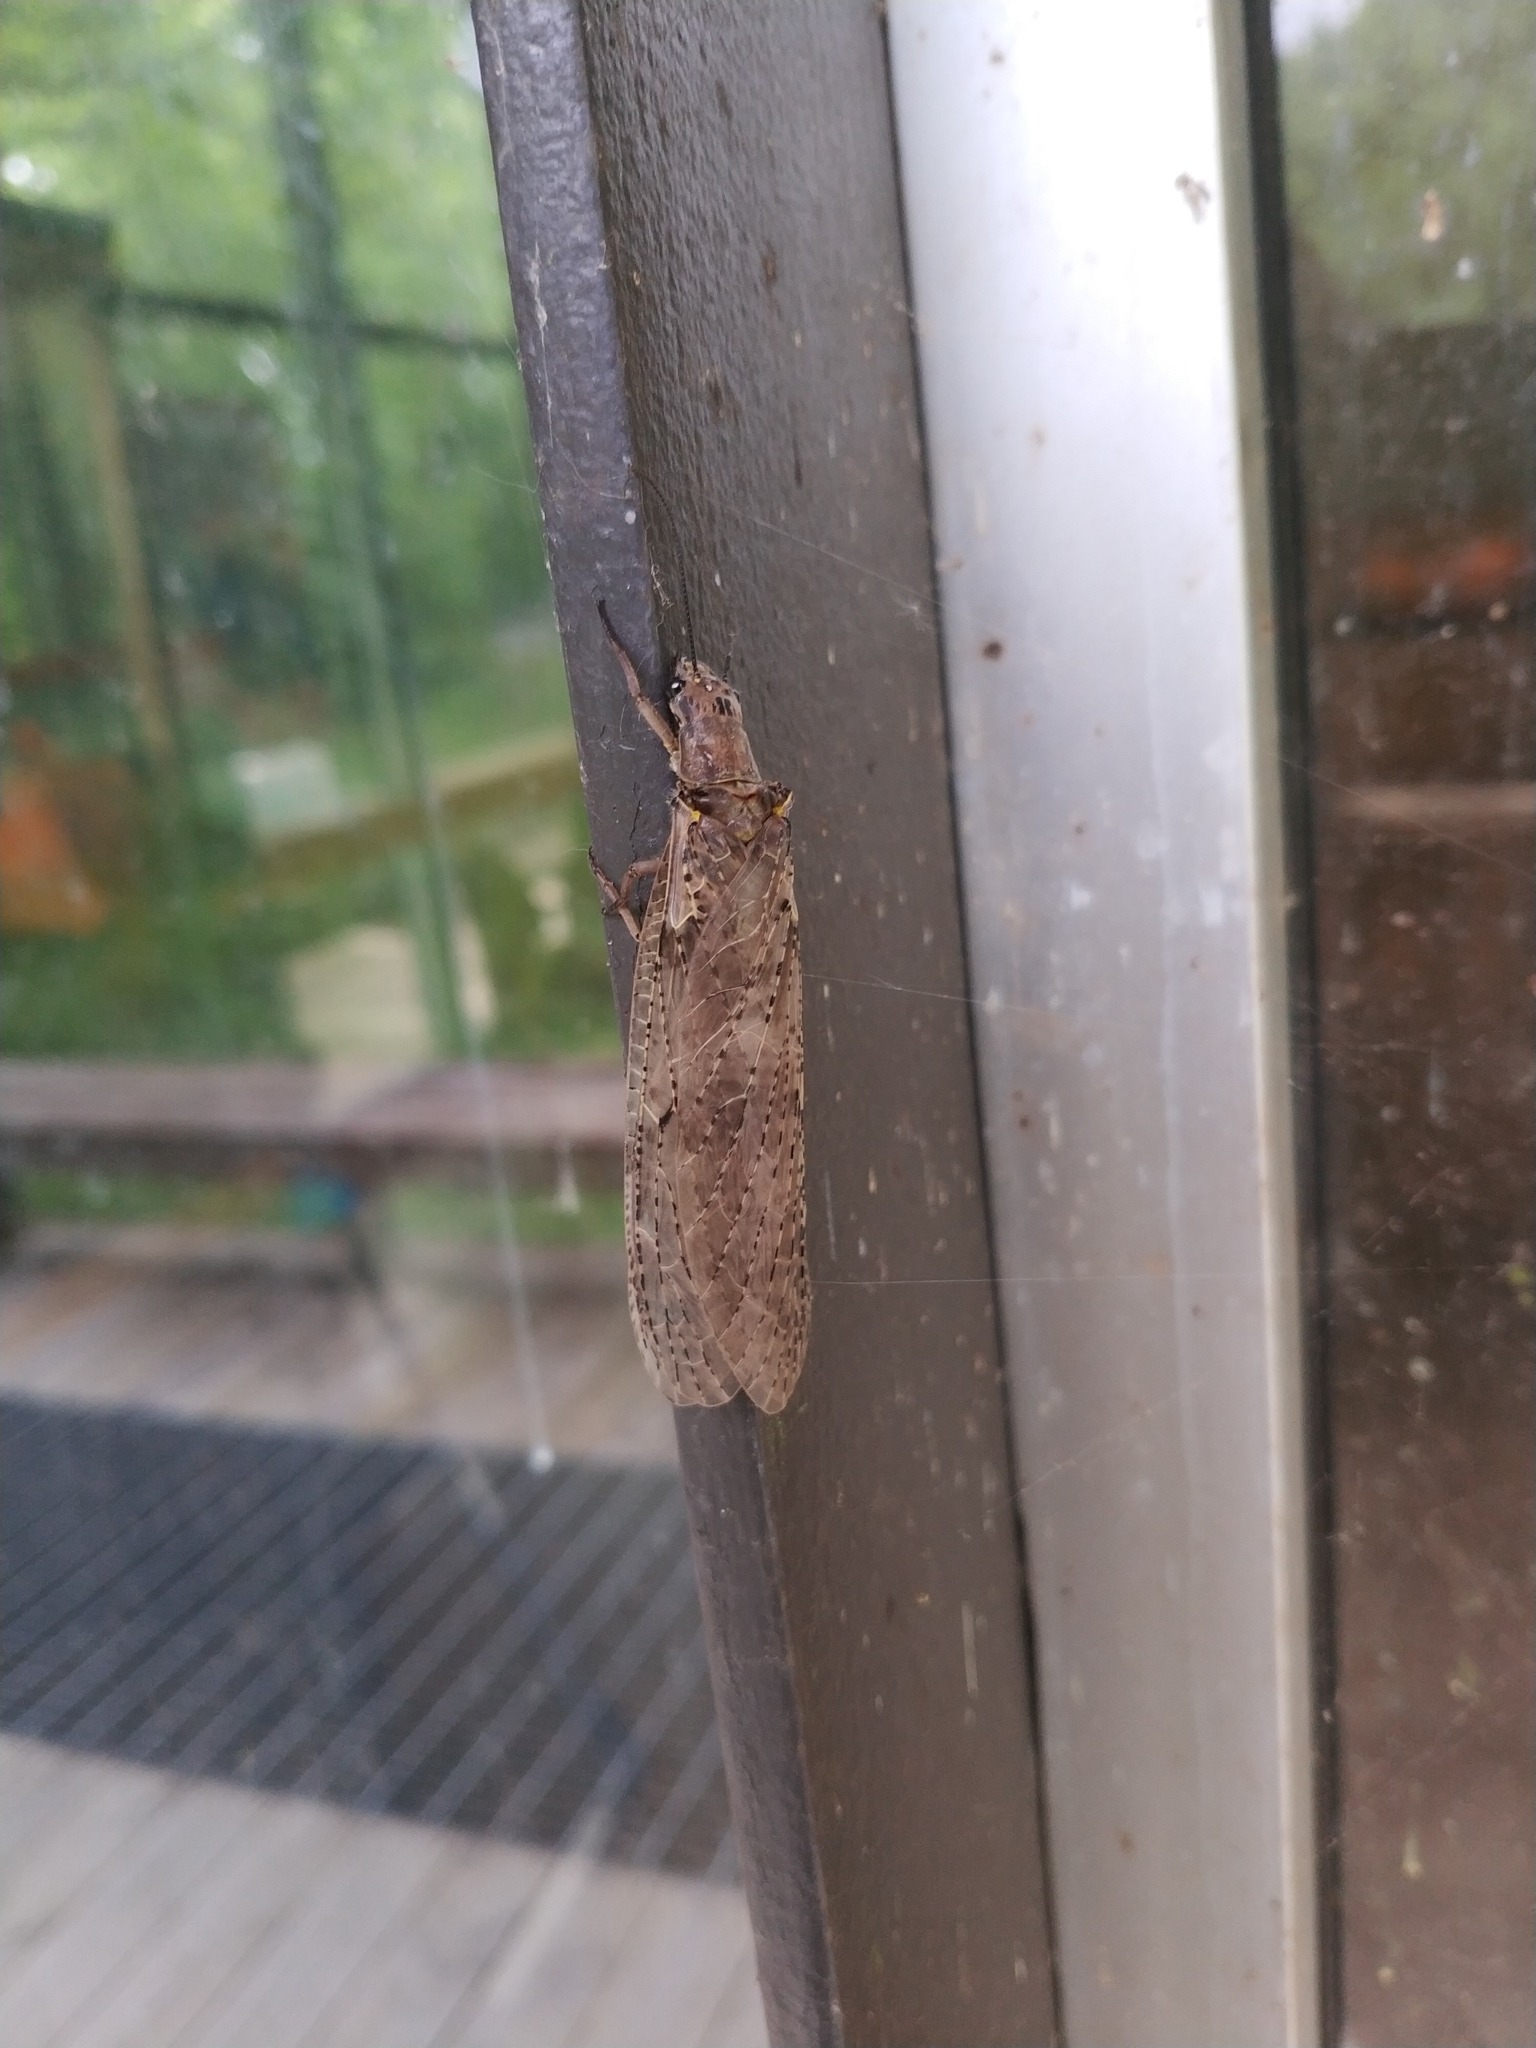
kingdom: Animalia
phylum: Arthropoda
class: Insecta
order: Megaloptera
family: Corydalidae
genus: Chauliodes
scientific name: Chauliodes rastricornis
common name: Spring fishfly
